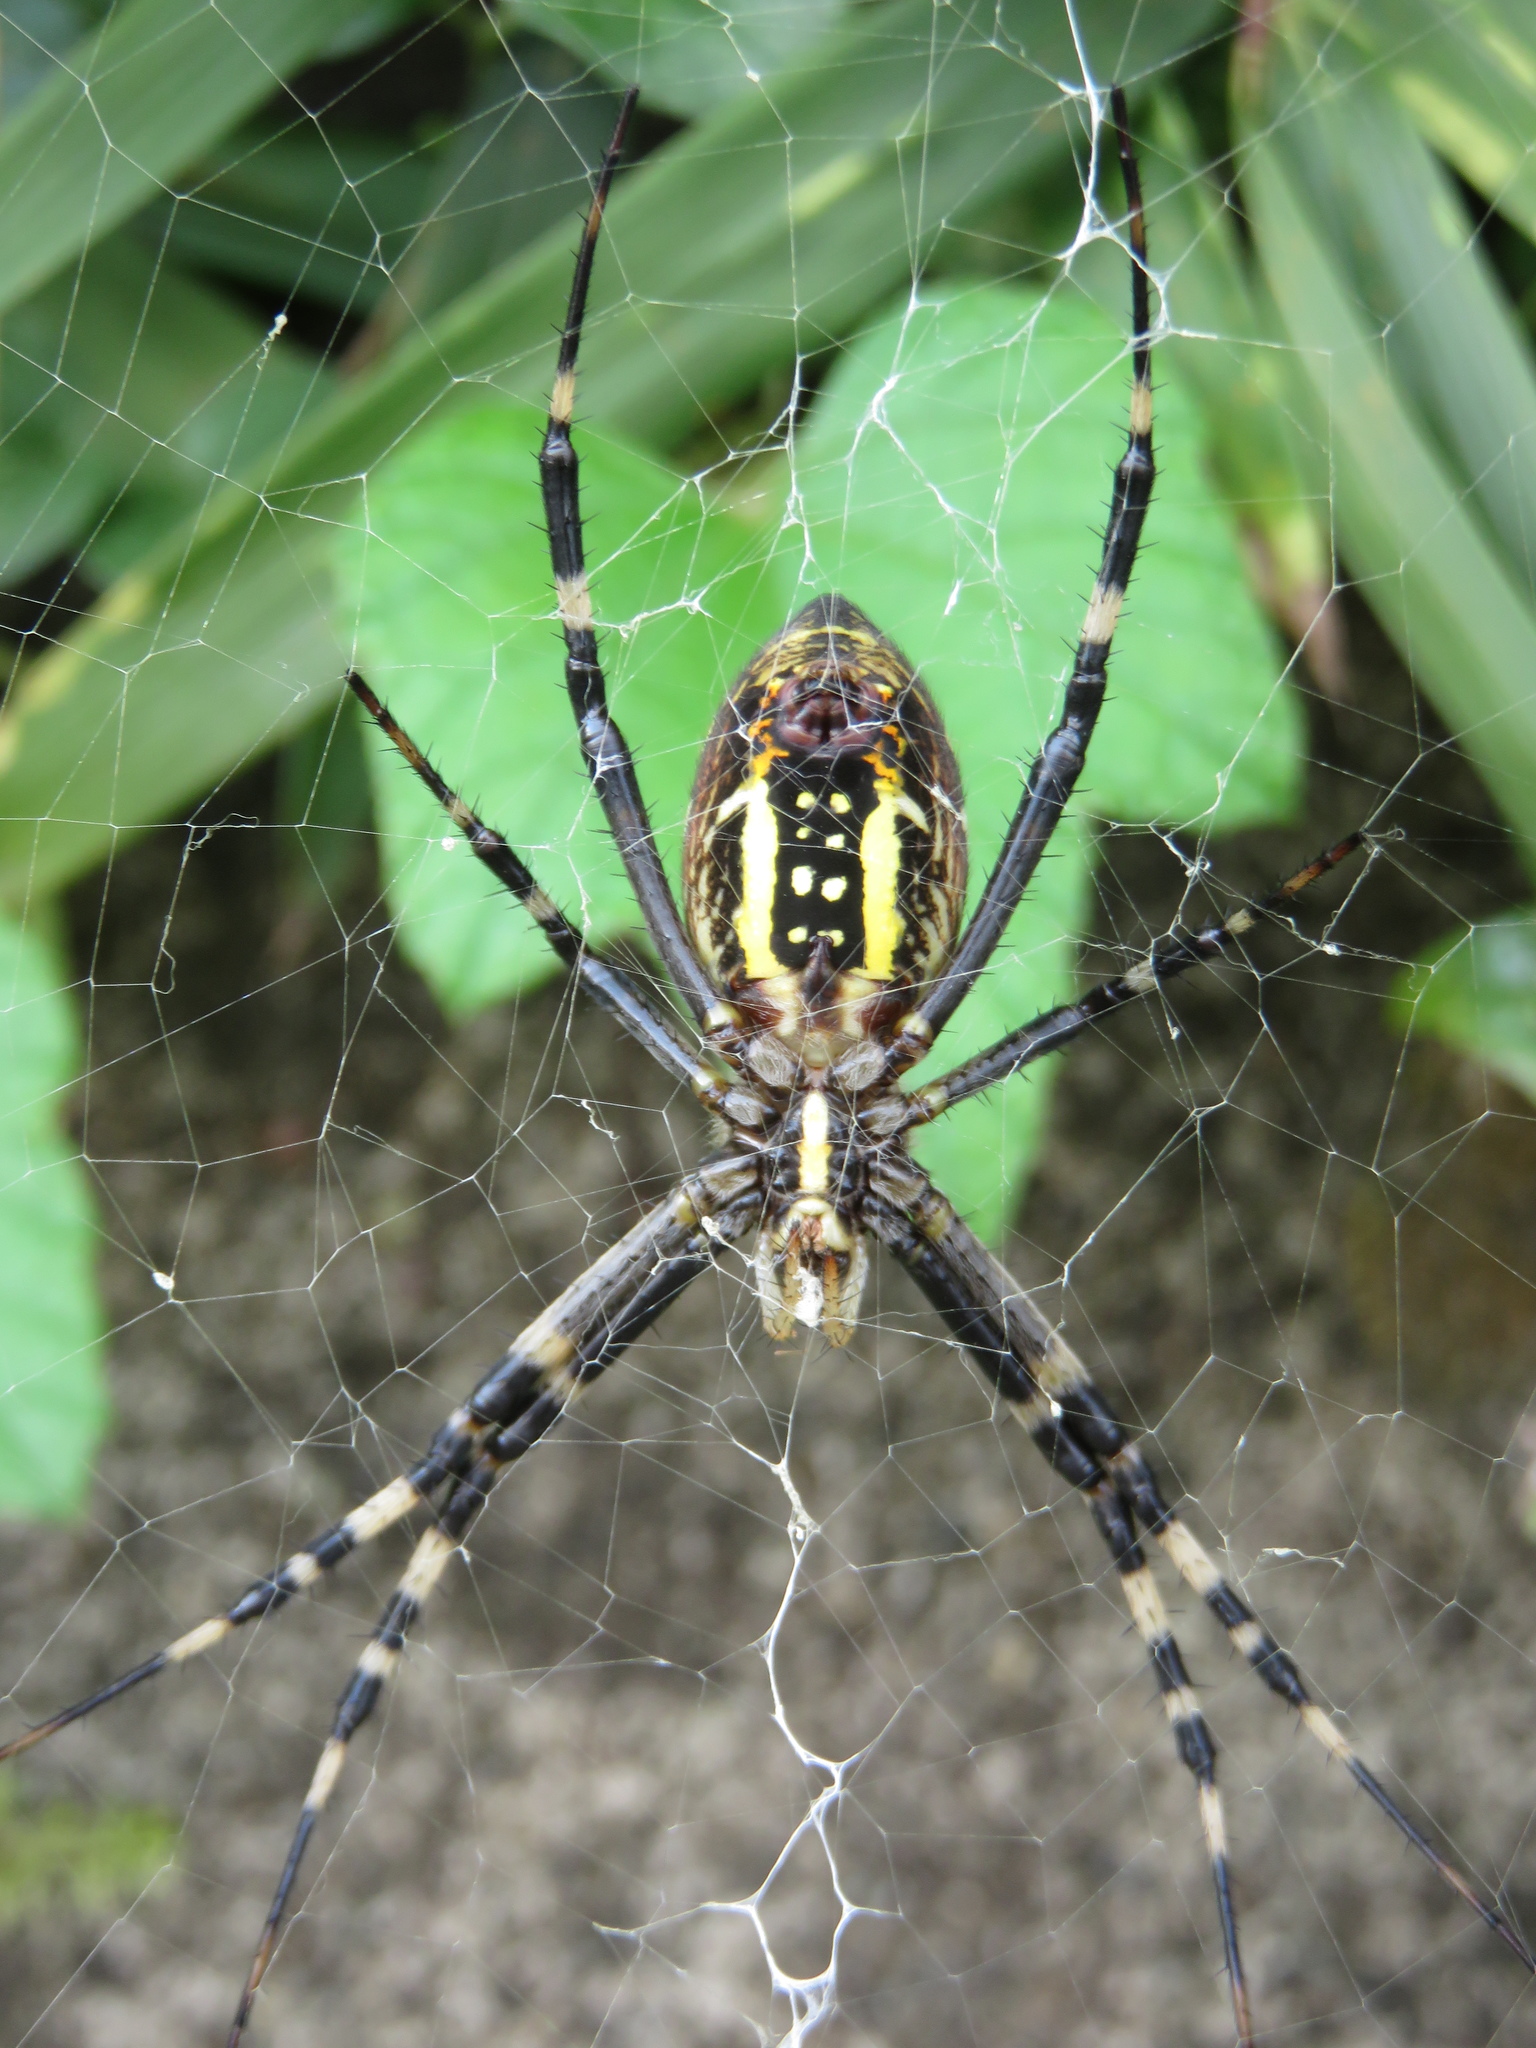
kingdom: Animalia
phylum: Arthropoda
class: Arachnida
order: Araneae
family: Araneidae
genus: Argiope
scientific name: Argiope bruennichi
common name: Wasp spider
